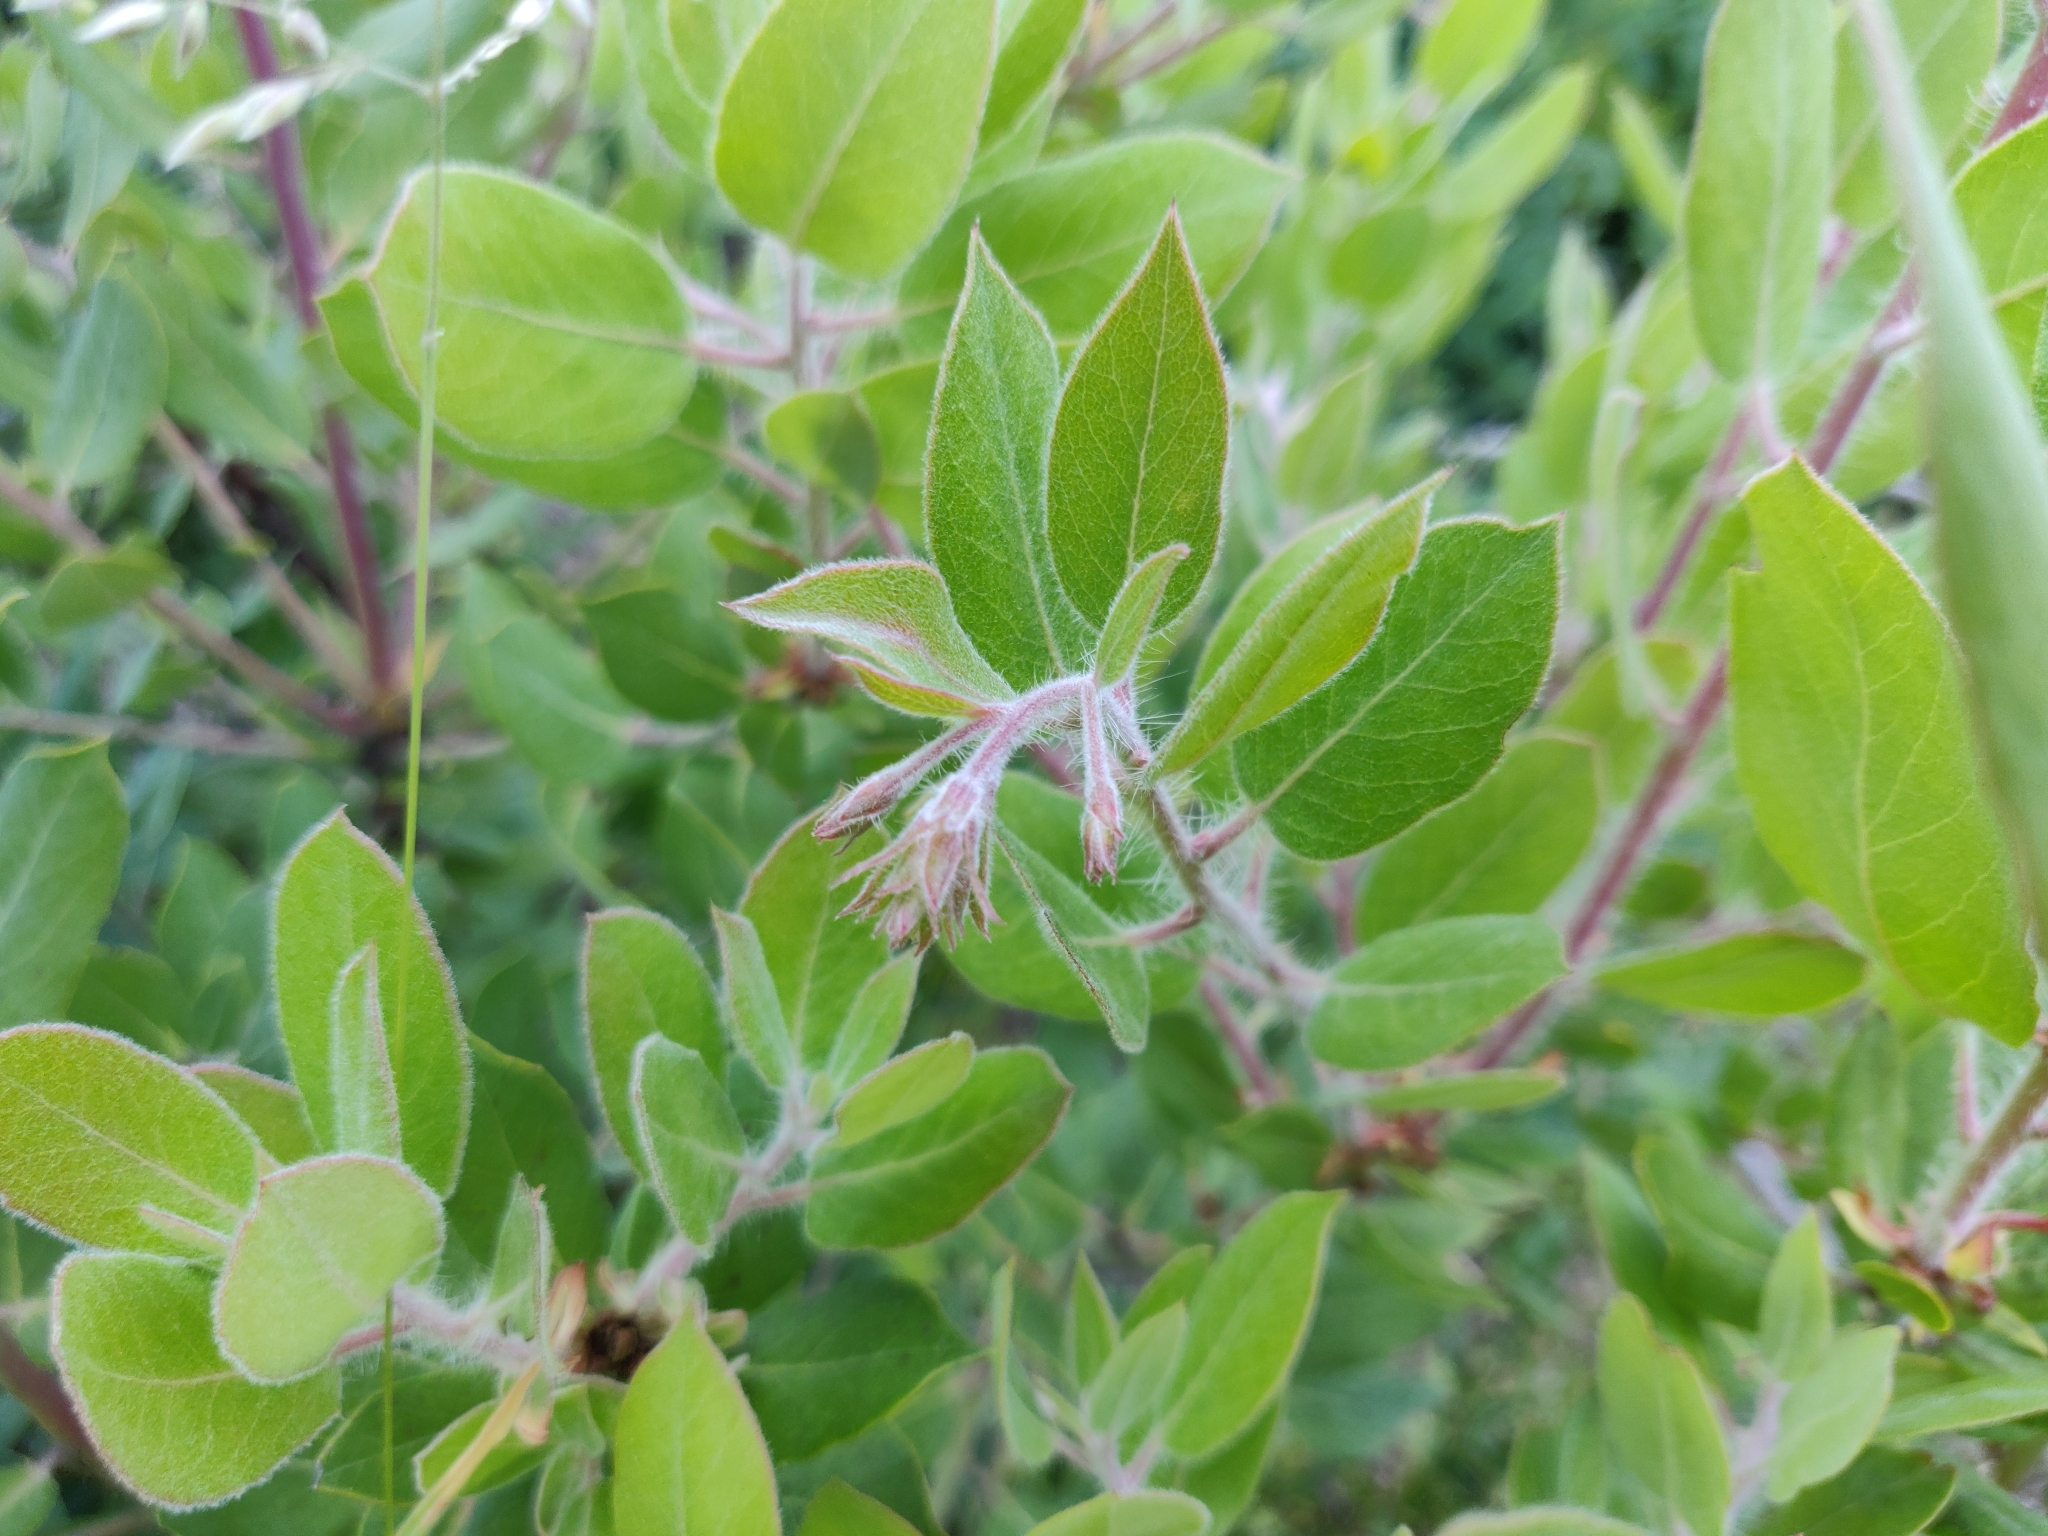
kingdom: Plantae
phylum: Tracheophyta
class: Magnoliopsida
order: Ericales
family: Ericaceae
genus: Arctostaphylos
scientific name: Arctostaphylos crustacea
